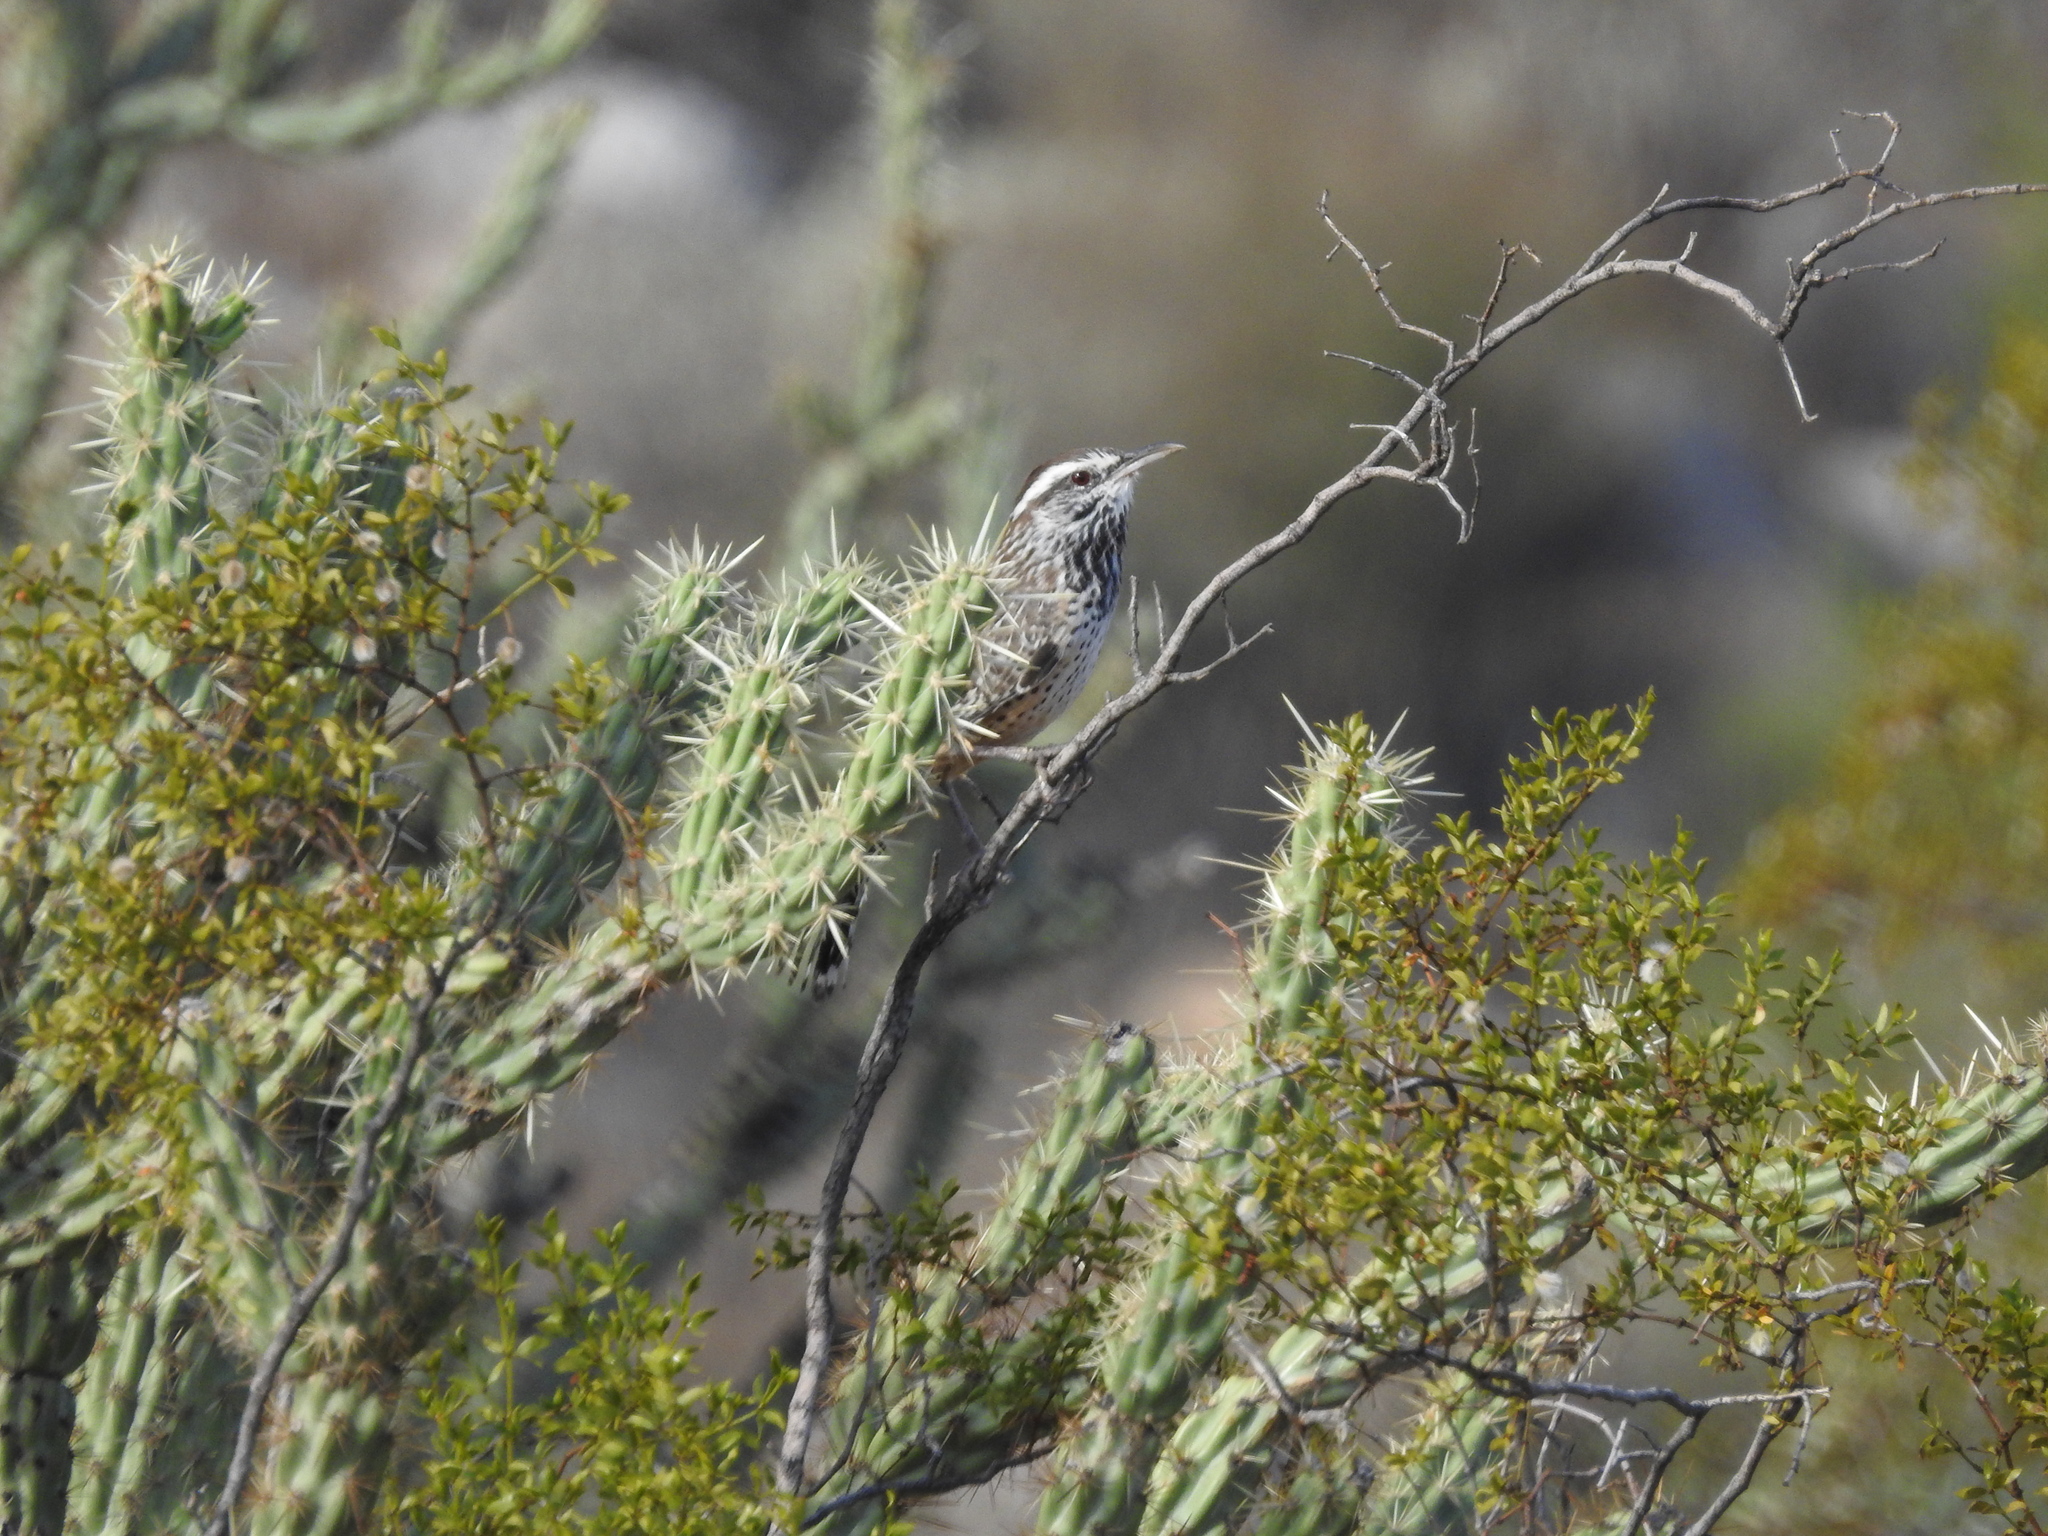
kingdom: Animalia
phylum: Chordata
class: Aves
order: Passeriformes
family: Troglodytidae
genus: Campylorhynchus
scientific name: Campylorhynchus brunneicapillus
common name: Cactus wren
